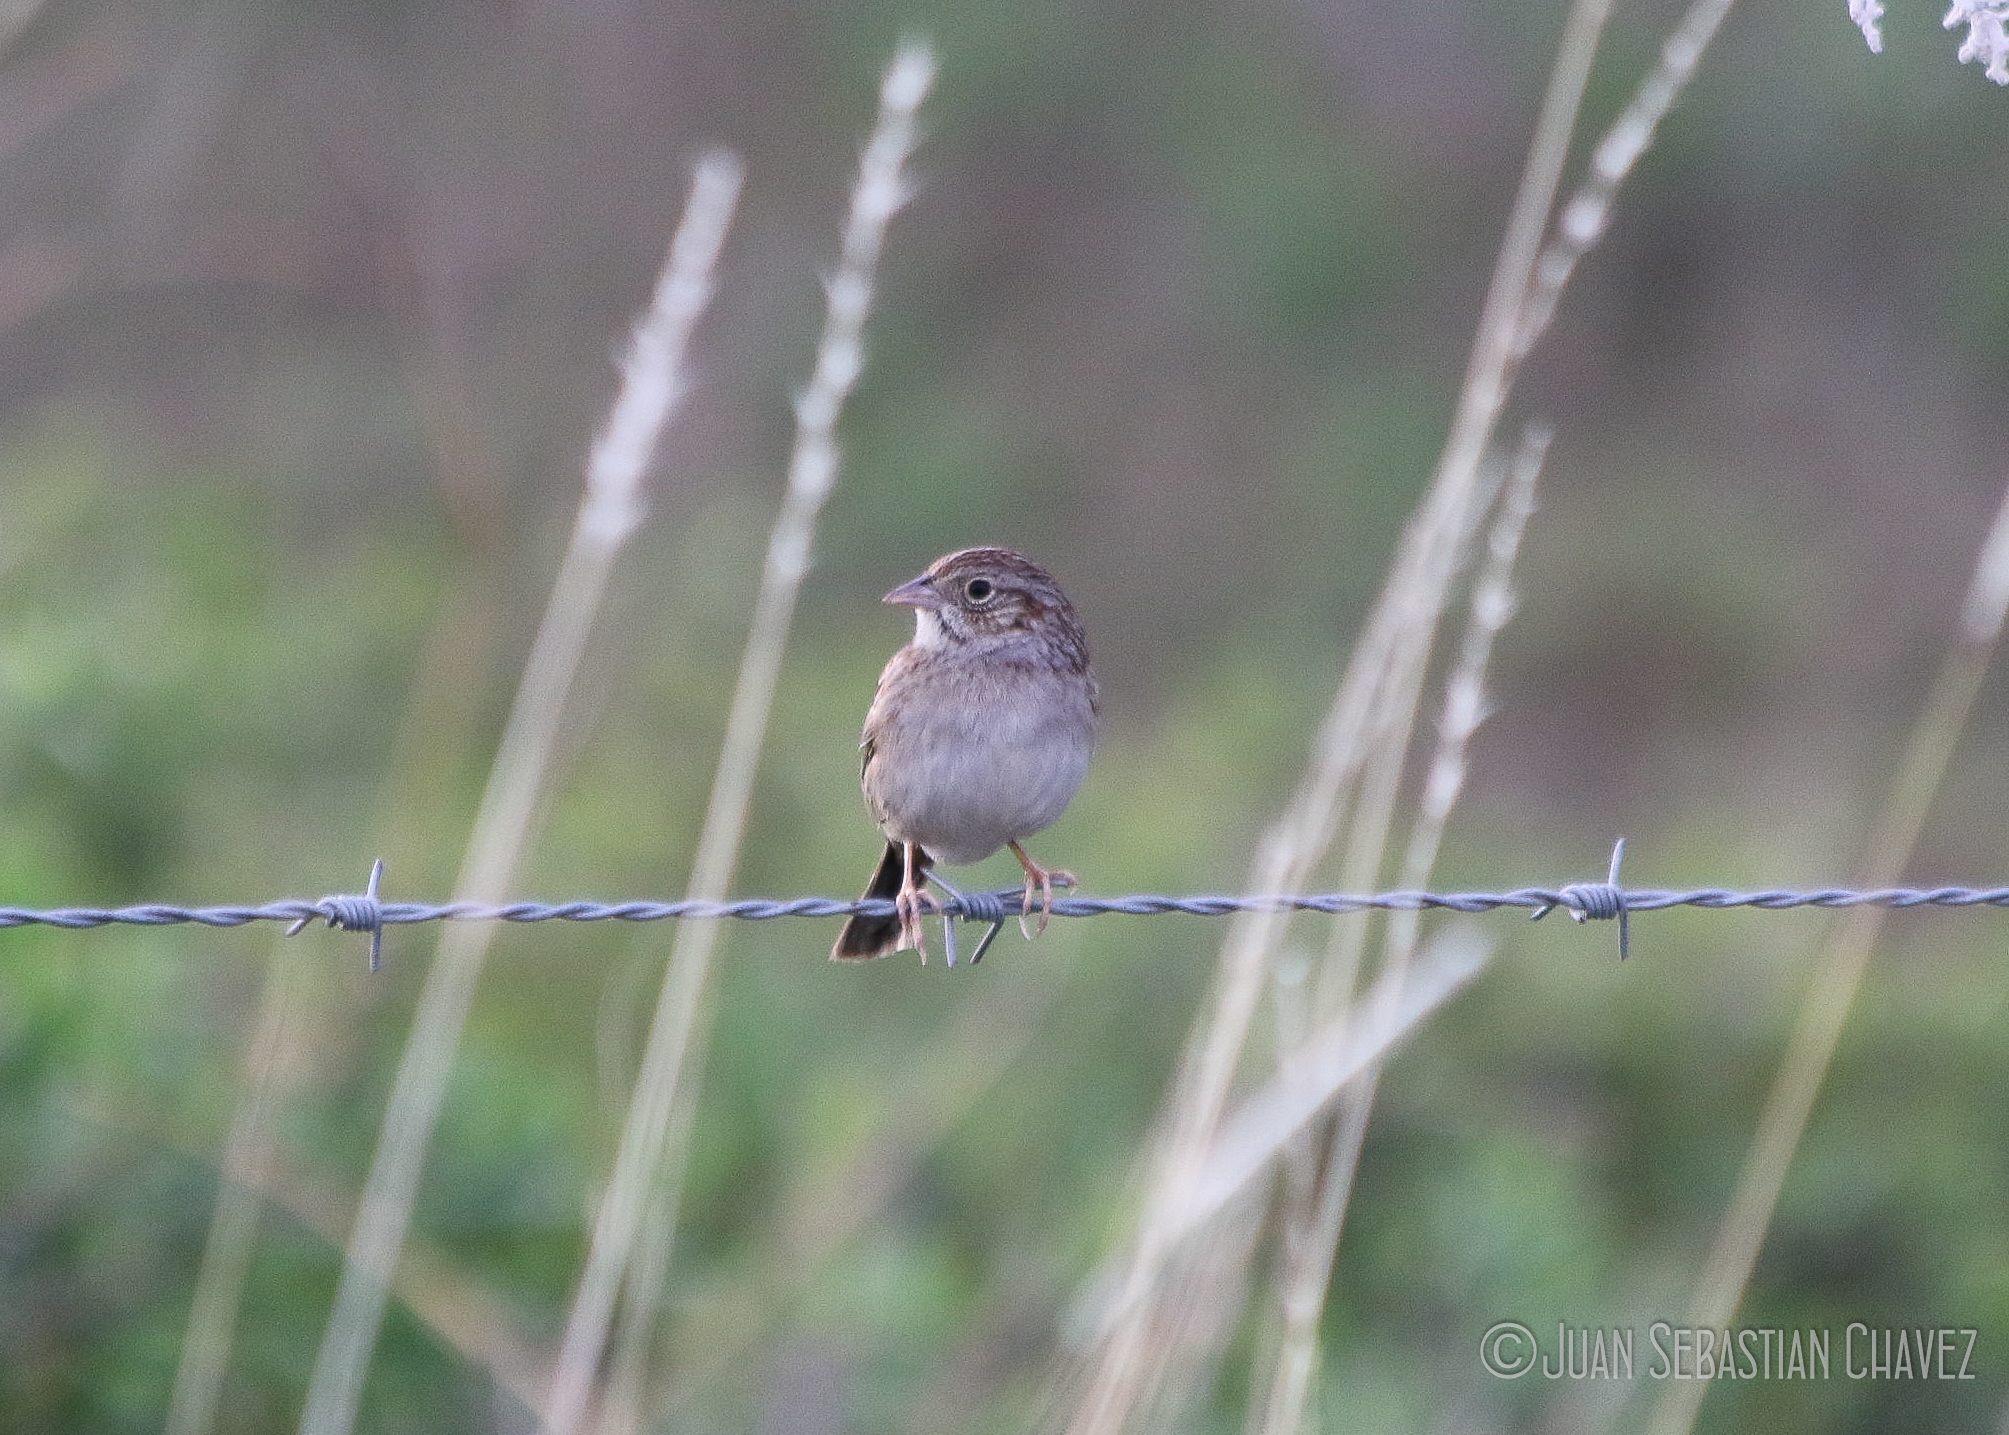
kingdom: Animalia
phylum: Chordata
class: Aves
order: Passeriformes
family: Passerellidae
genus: Peucaea
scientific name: Peucaea cassinii
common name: Cassin's sparrow
